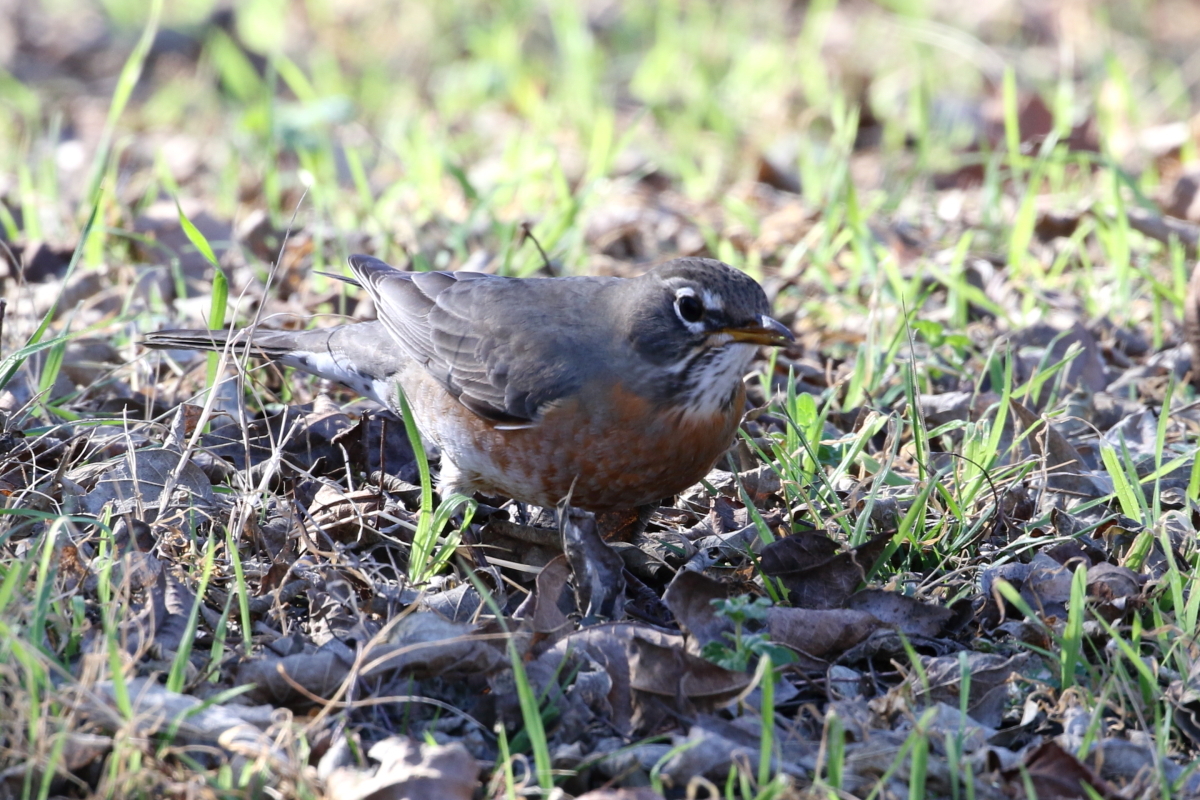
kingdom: Animalia
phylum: Chordata
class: Aves
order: Passeriformes
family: Turdidae
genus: Turdus
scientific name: Turdus migratorius
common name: American robin
